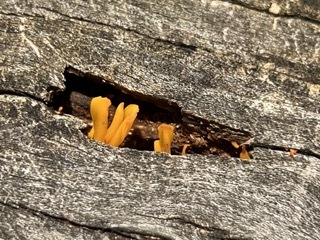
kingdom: Fungi
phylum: Basidiomycota
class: Dacrymycetes
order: Dacrymycetales
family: Dacrymycetaceae
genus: Dacrymyces
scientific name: Dacrymyces spathularius
